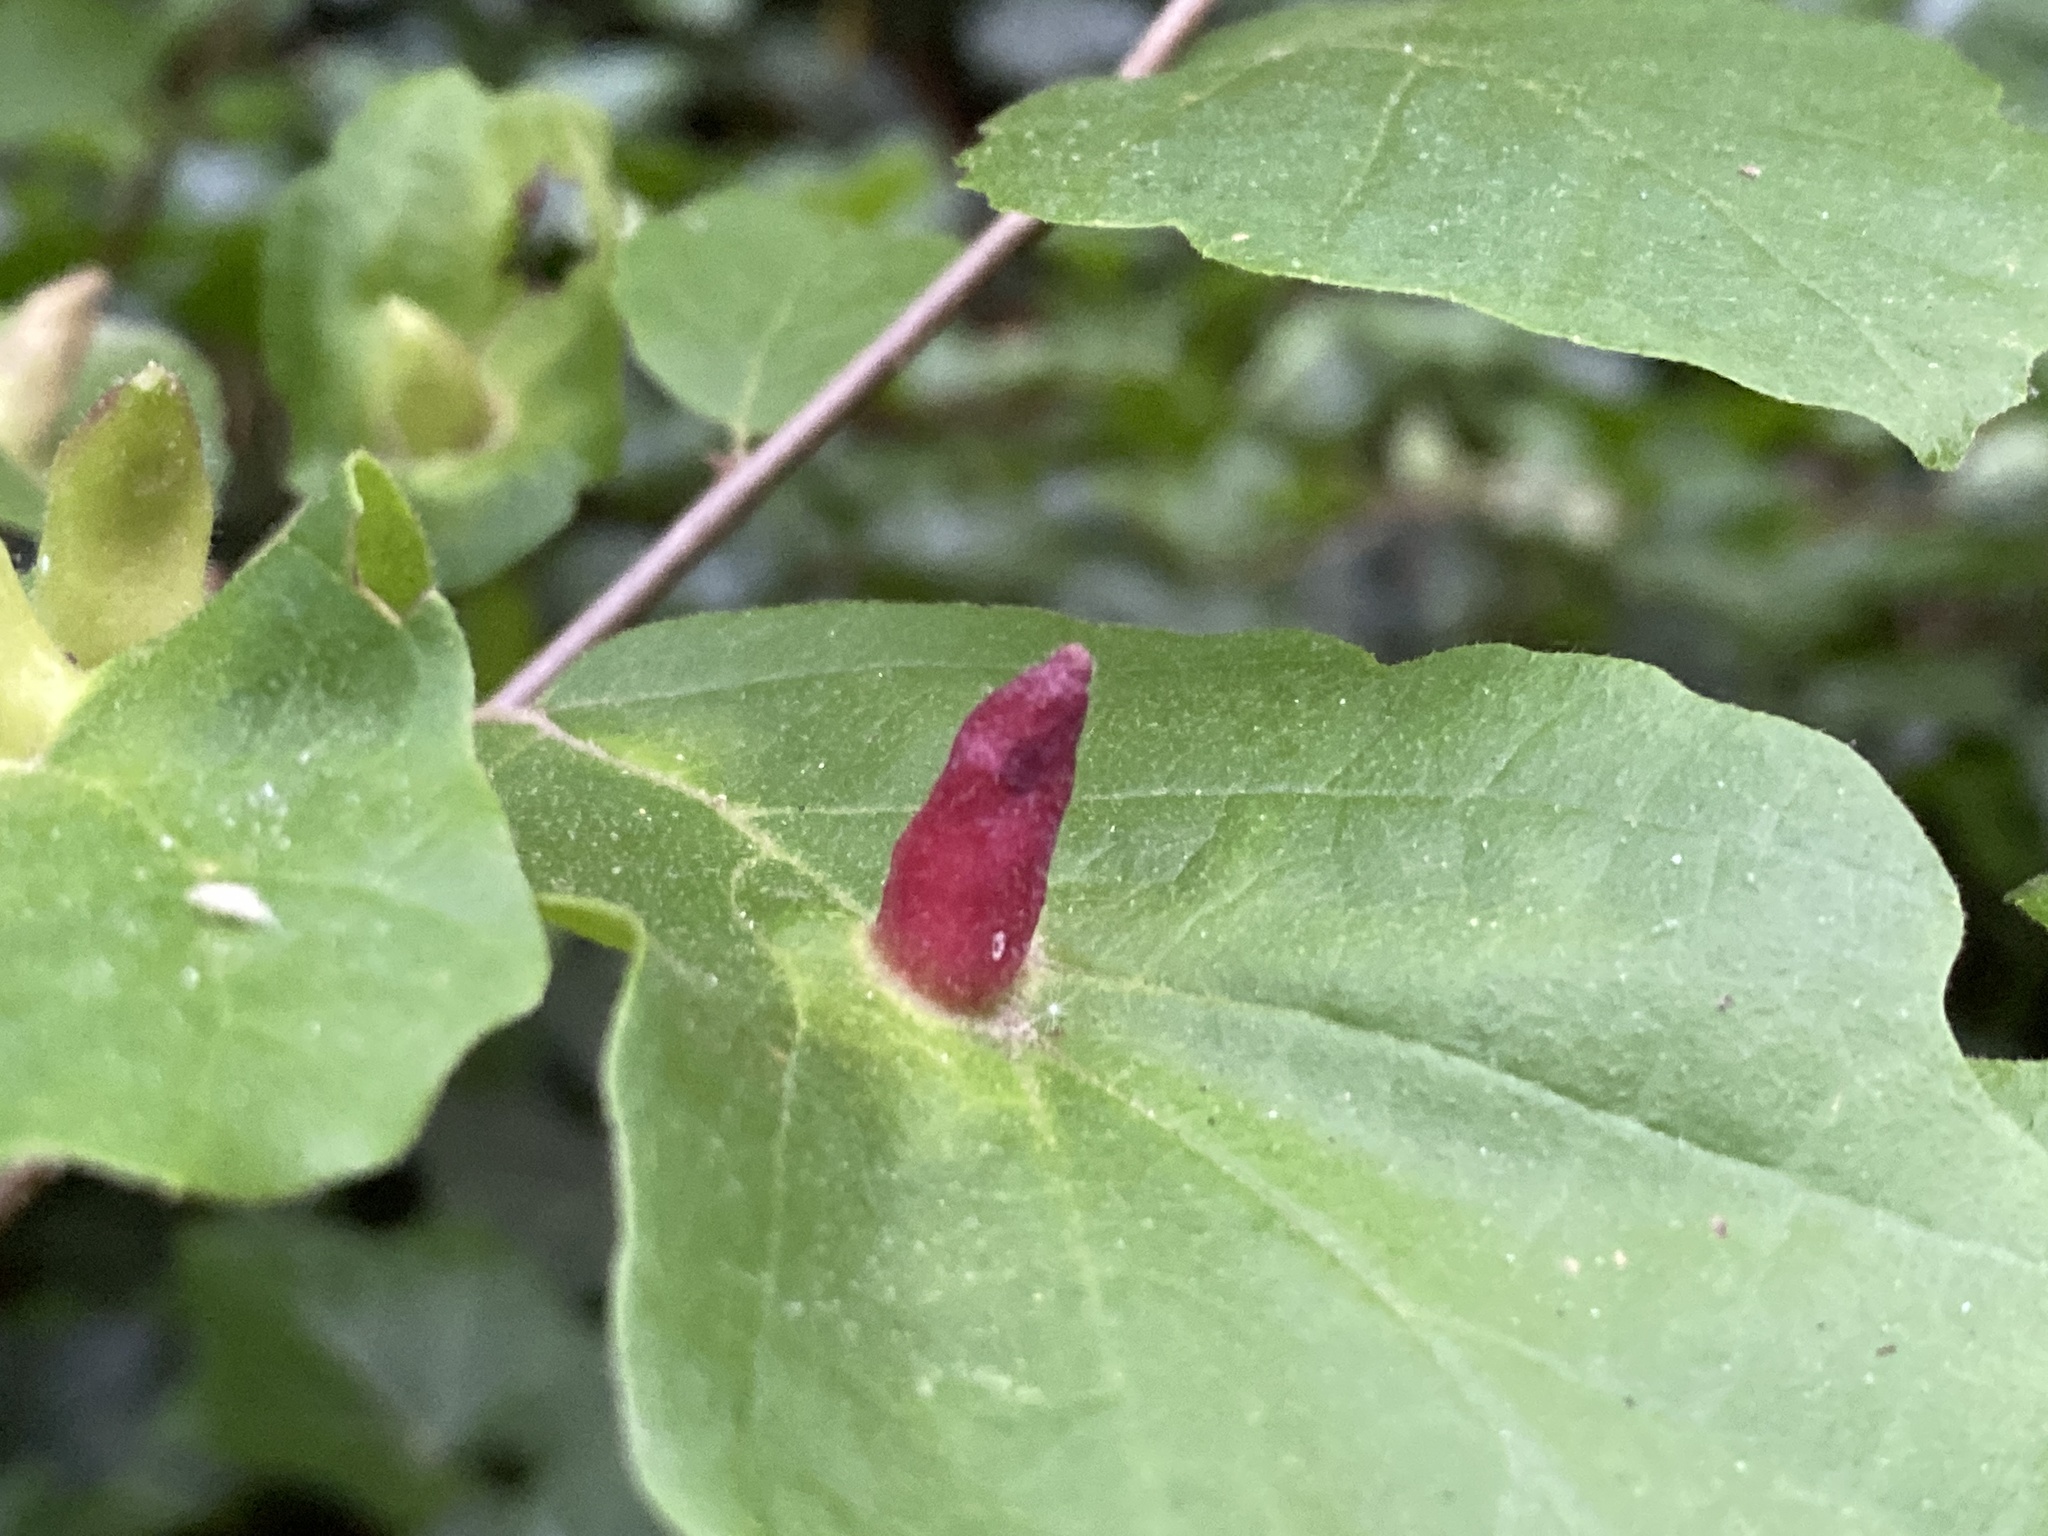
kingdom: Animalia
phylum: Arthropoda
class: Insecta
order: Hemiptera
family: Aphididae
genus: Hormaphis
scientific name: Hormaphis hamamelidis
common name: Witch-hazel cone gall aphid
